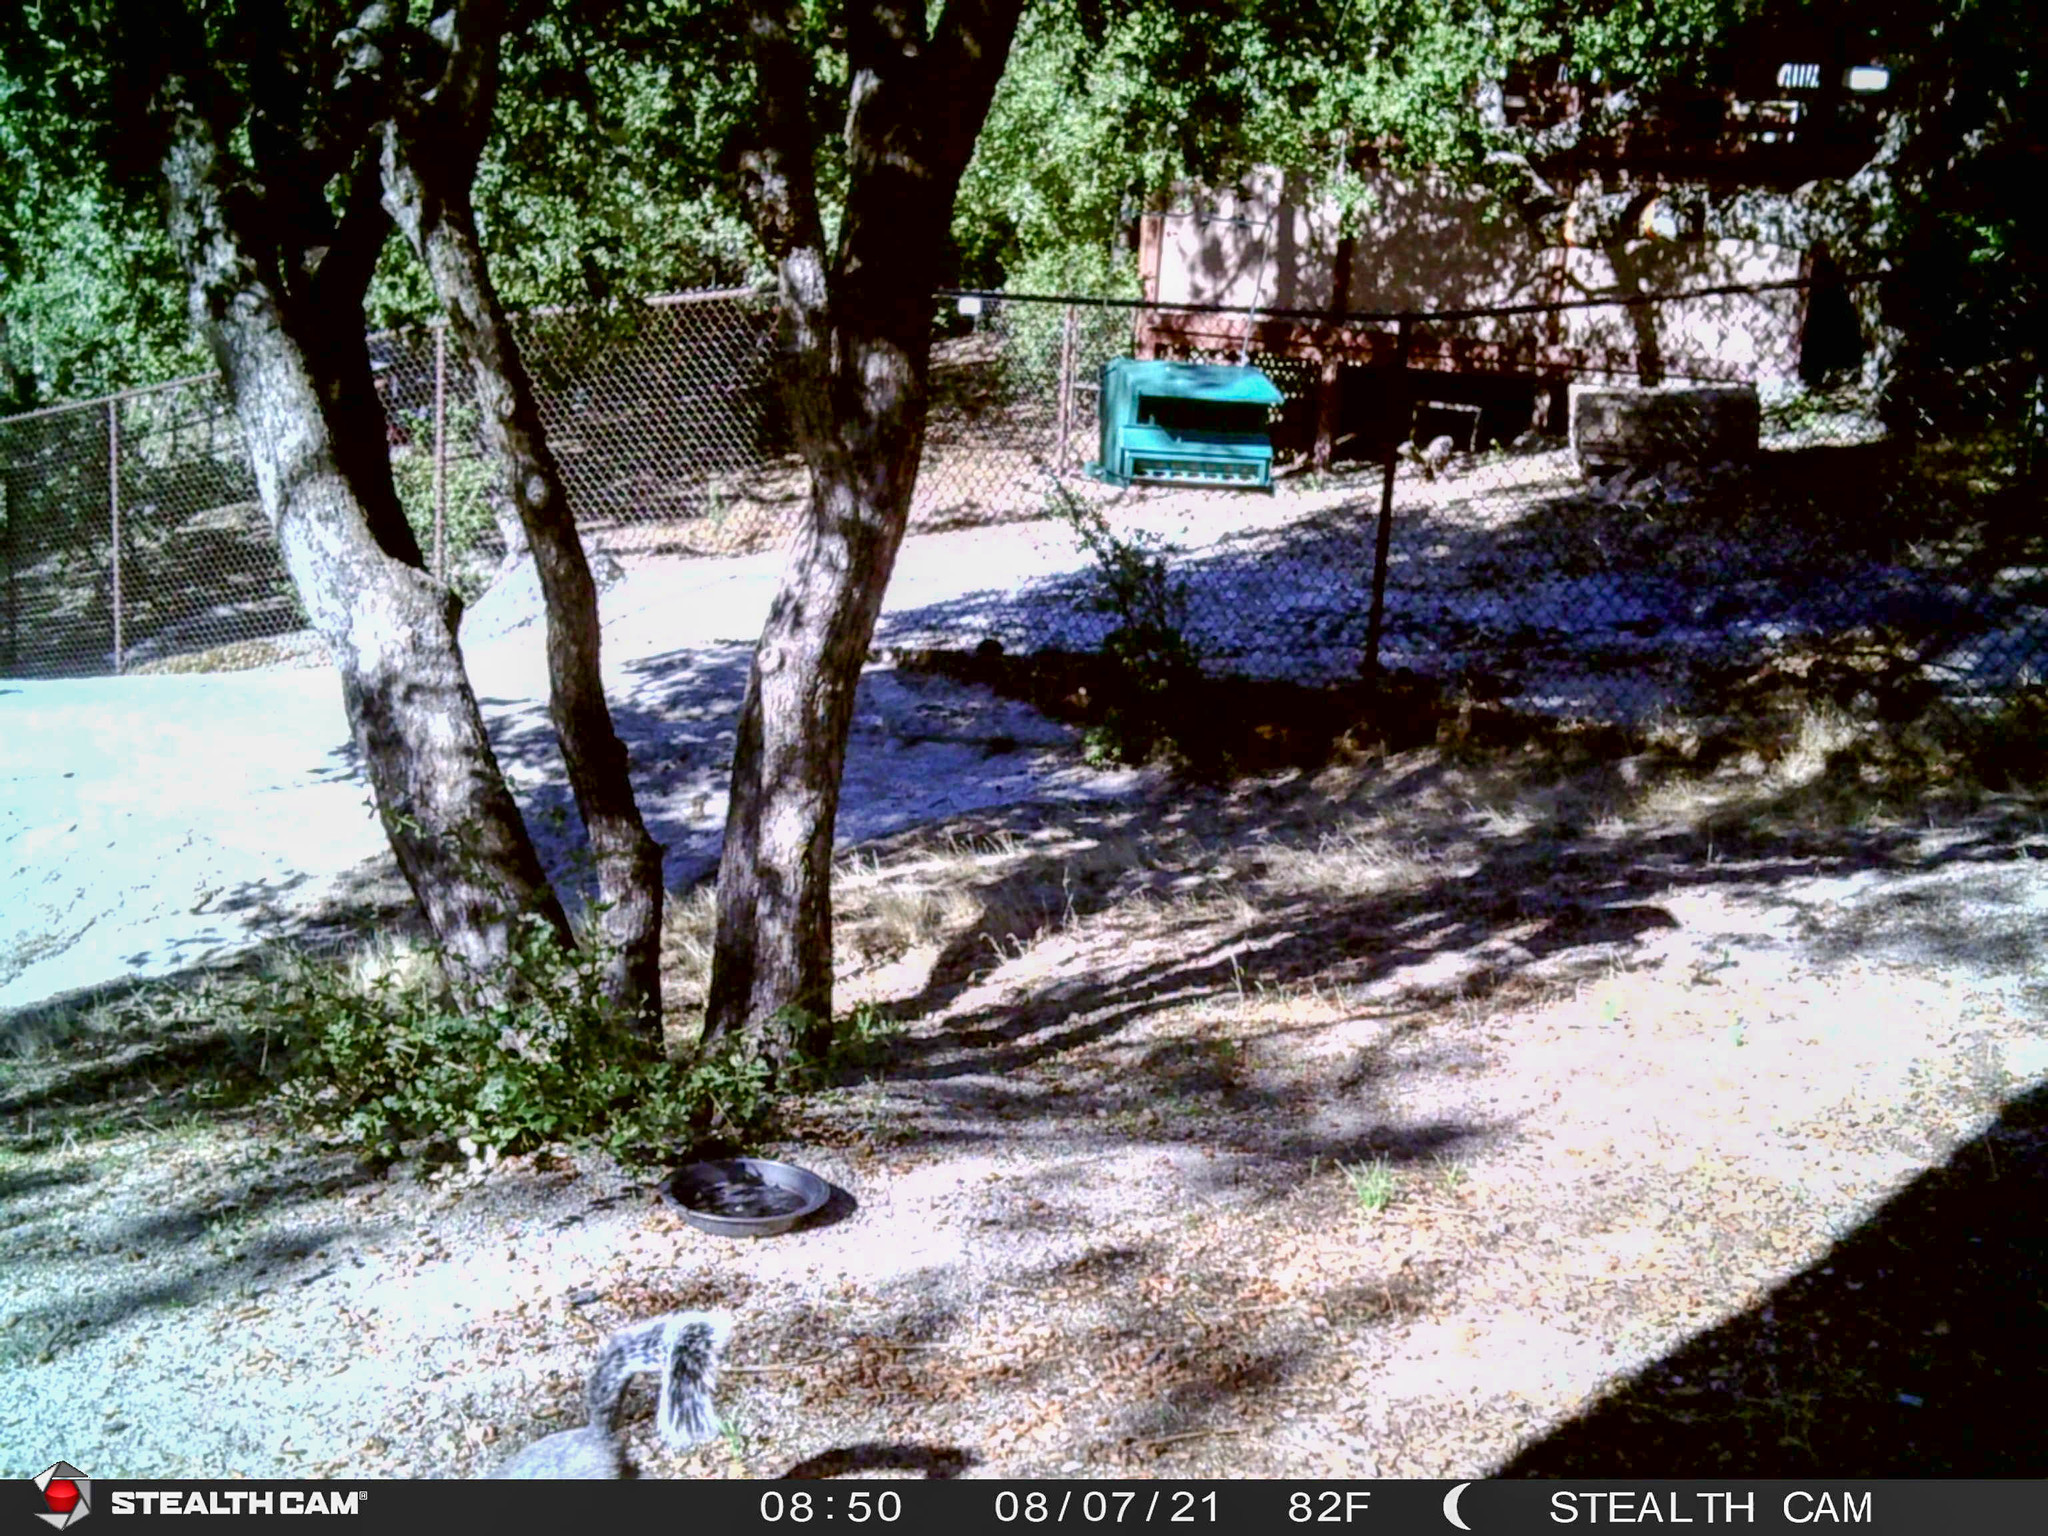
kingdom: Animalia
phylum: Chordata
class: Mammalia
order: Rodentia
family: Sciuridae
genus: Sciurus
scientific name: Sciurus griseus
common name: Western gray squirrel
